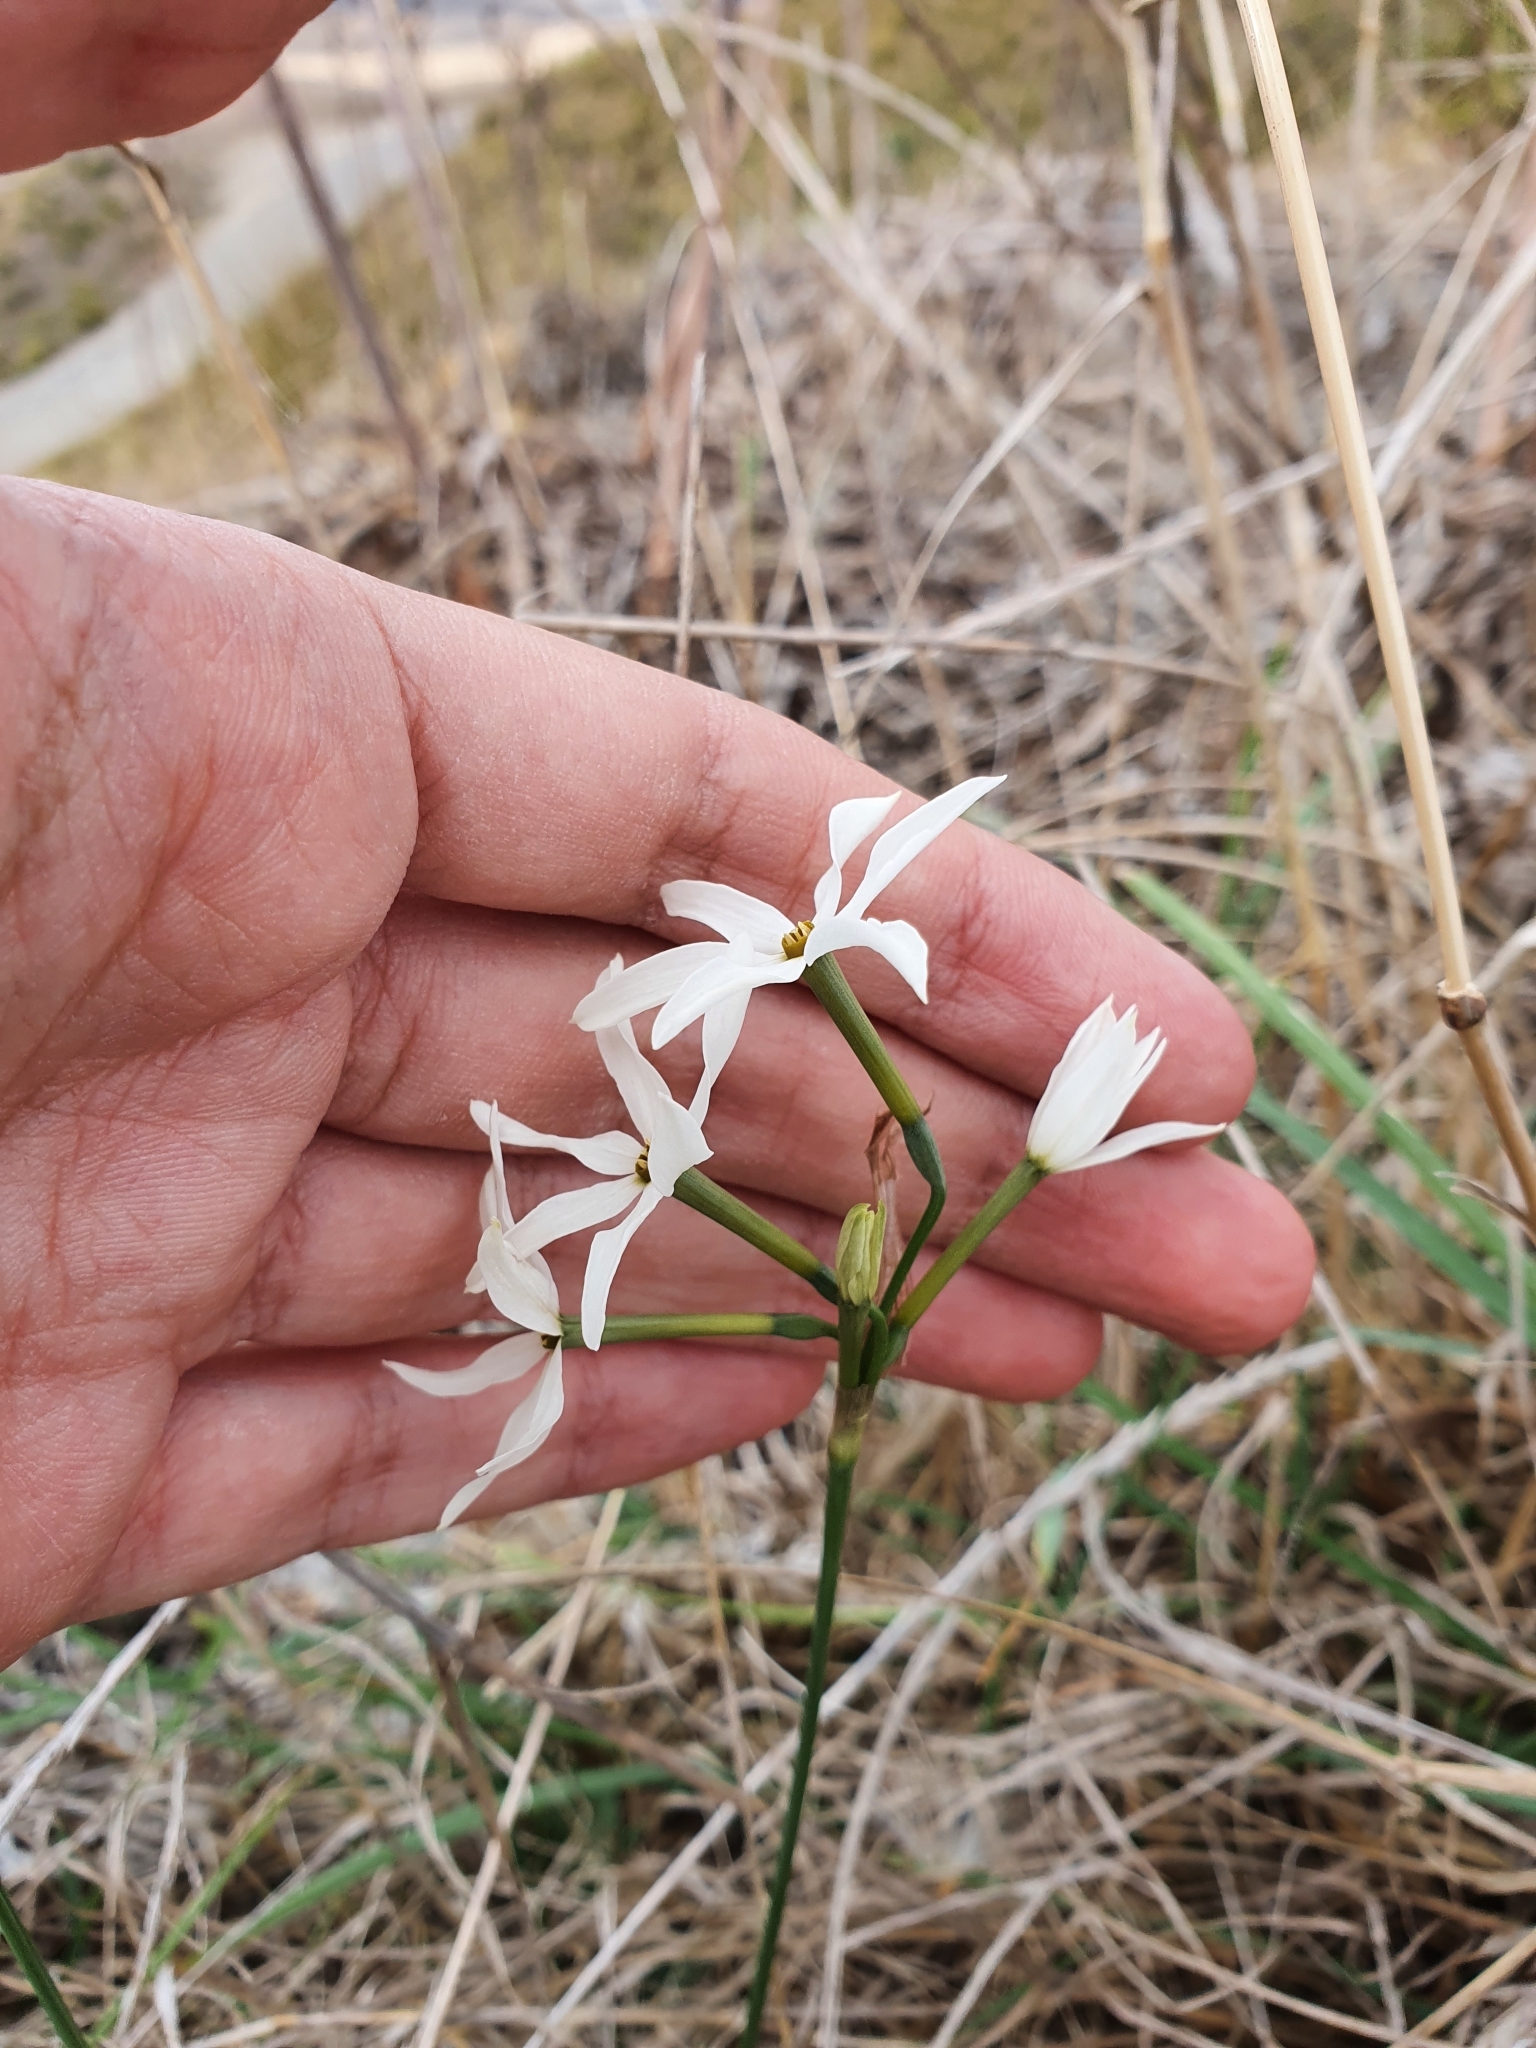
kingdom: Plantae
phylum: Tracheophyta
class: Liliopsida
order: Asparagales
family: Amaryllidaceae
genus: Narcissus
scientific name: Narcissus obsoletus
